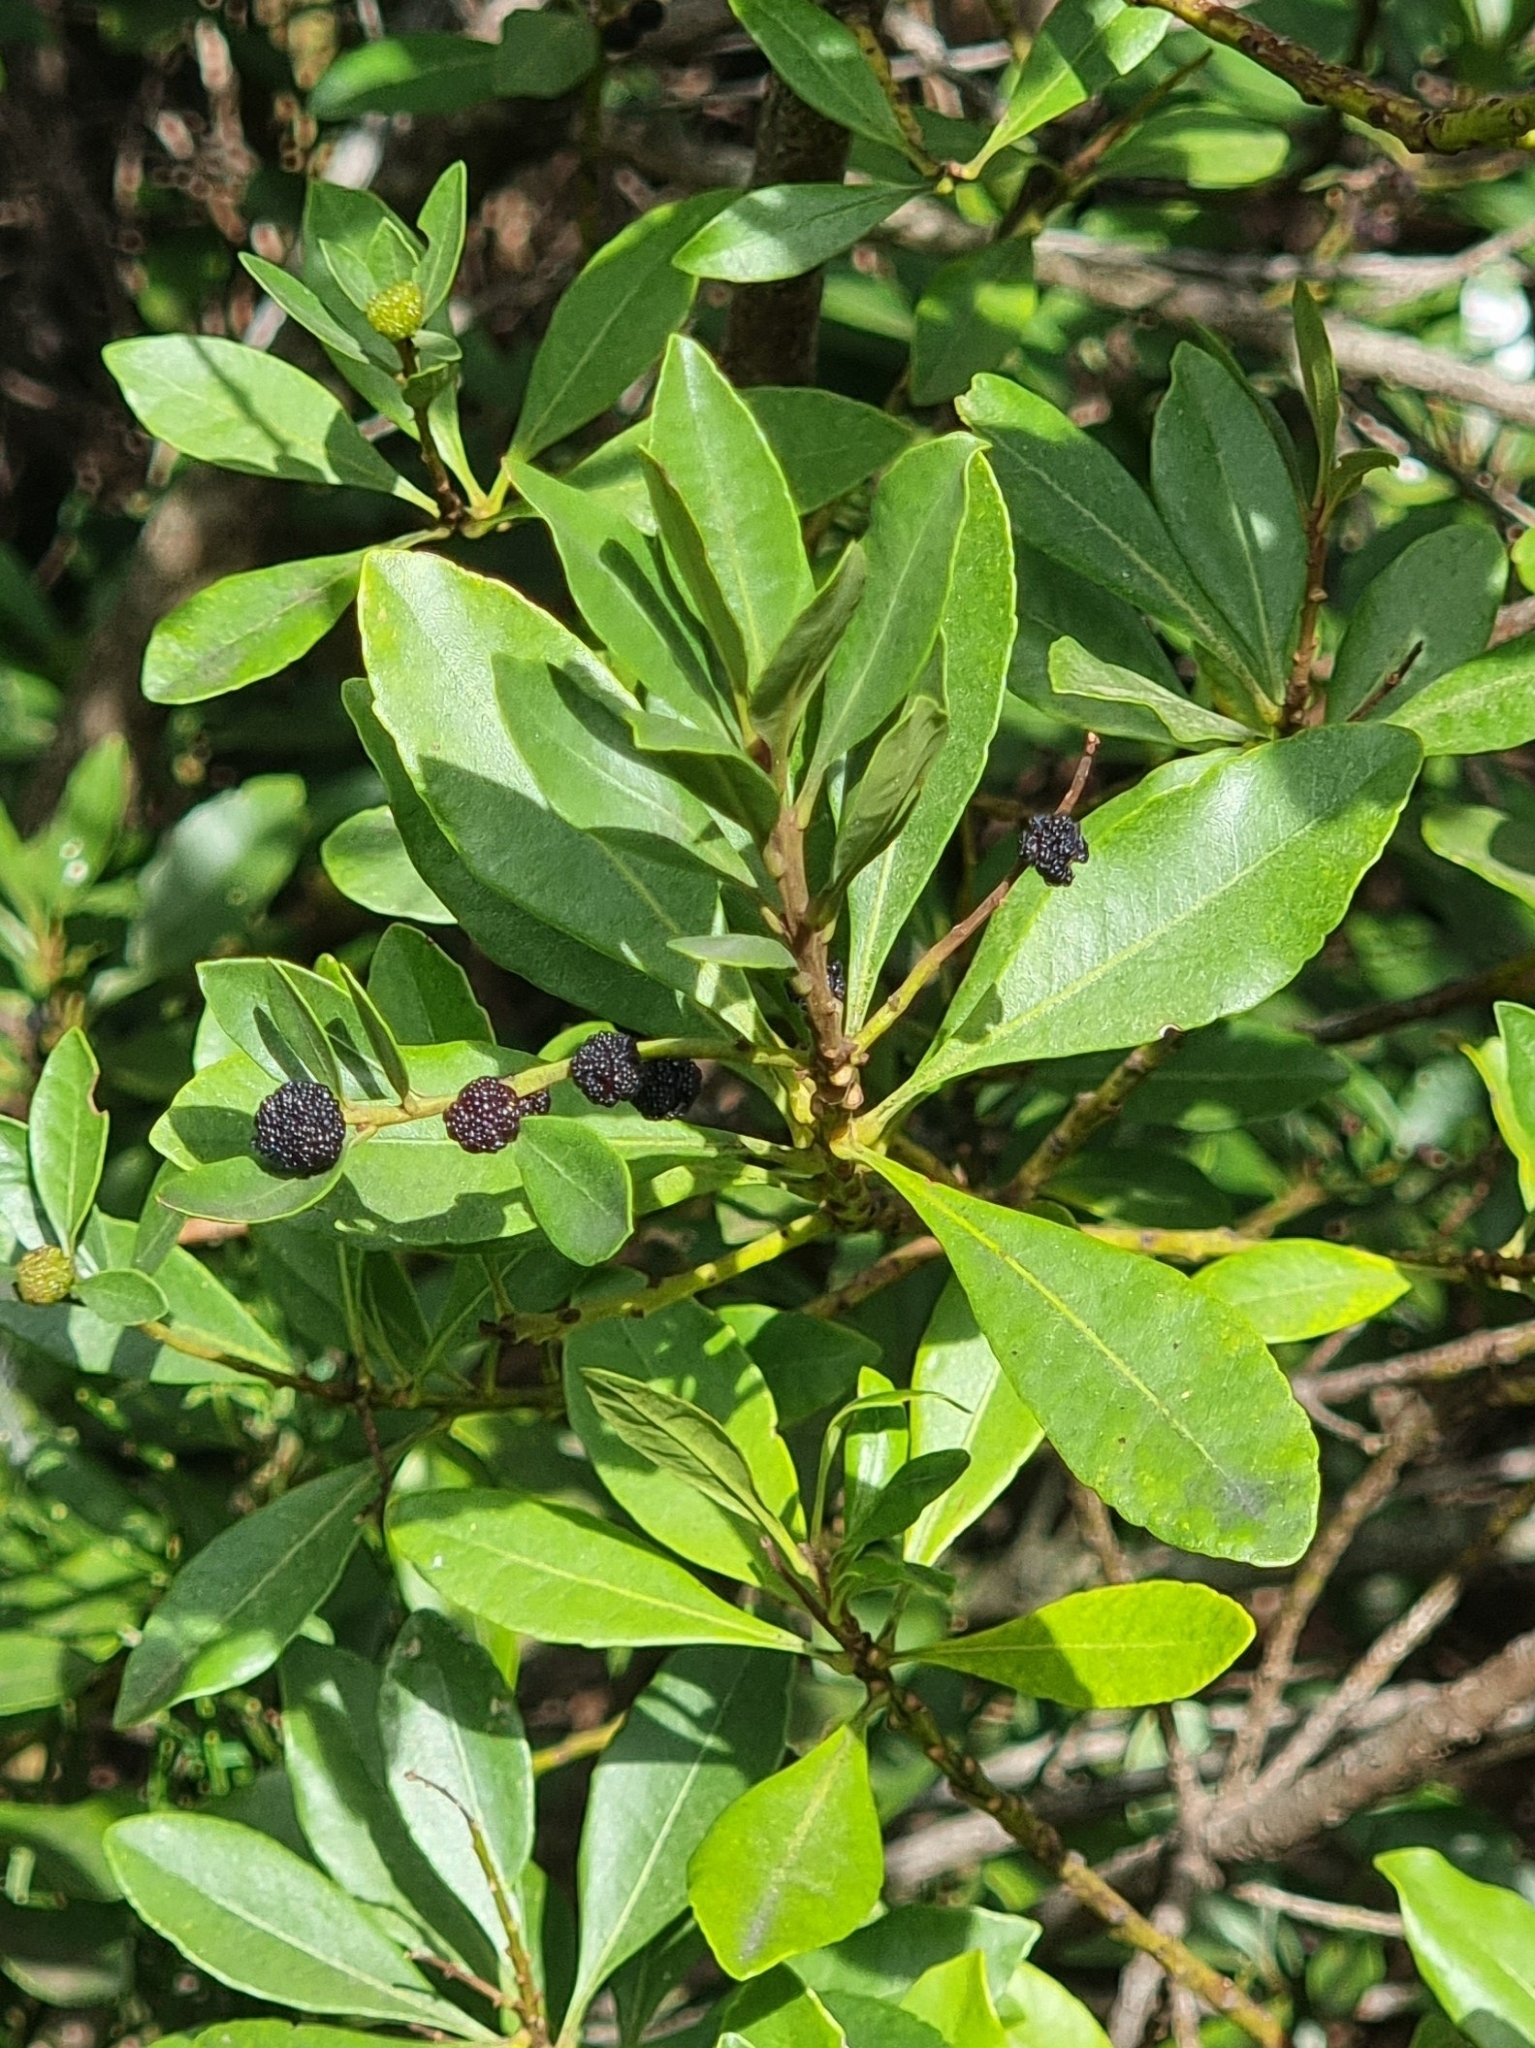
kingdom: Plantae
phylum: Tracheophyta
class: Magnoliopsida
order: Fagales
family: Myricaceae
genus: Morella
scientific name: Morella faya
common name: Firetree
